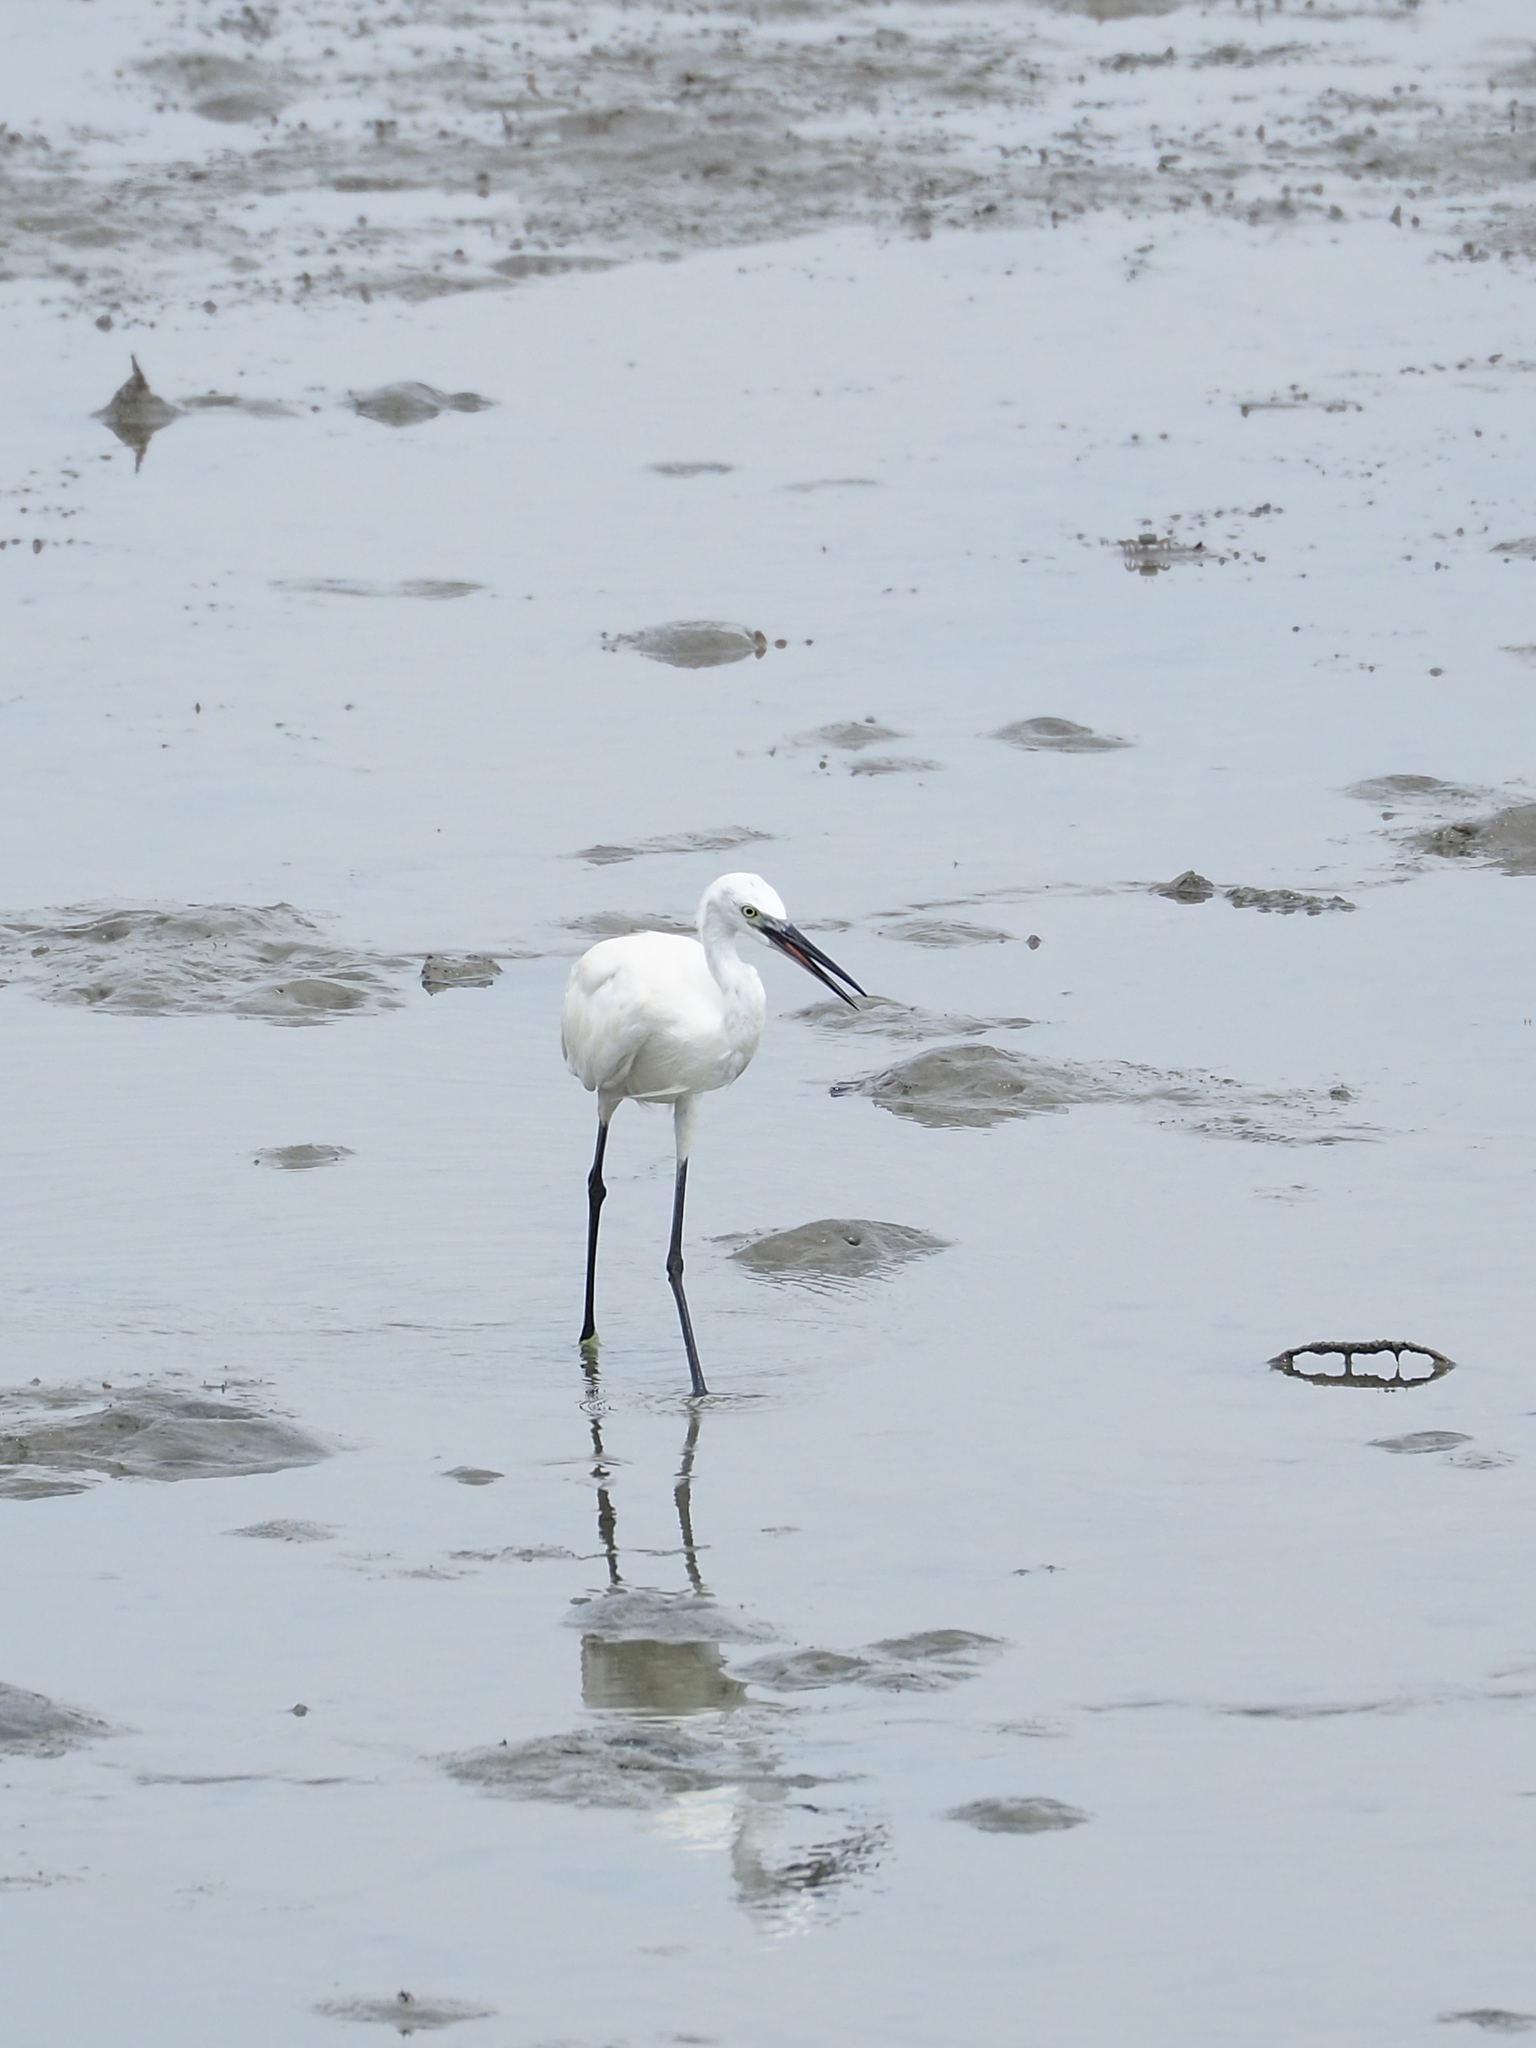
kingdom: Animalia
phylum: Chordata
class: Aves
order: Pelecaniformes
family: Ardeidae
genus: Egretta
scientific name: Egretta garzetta
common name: Little egret
